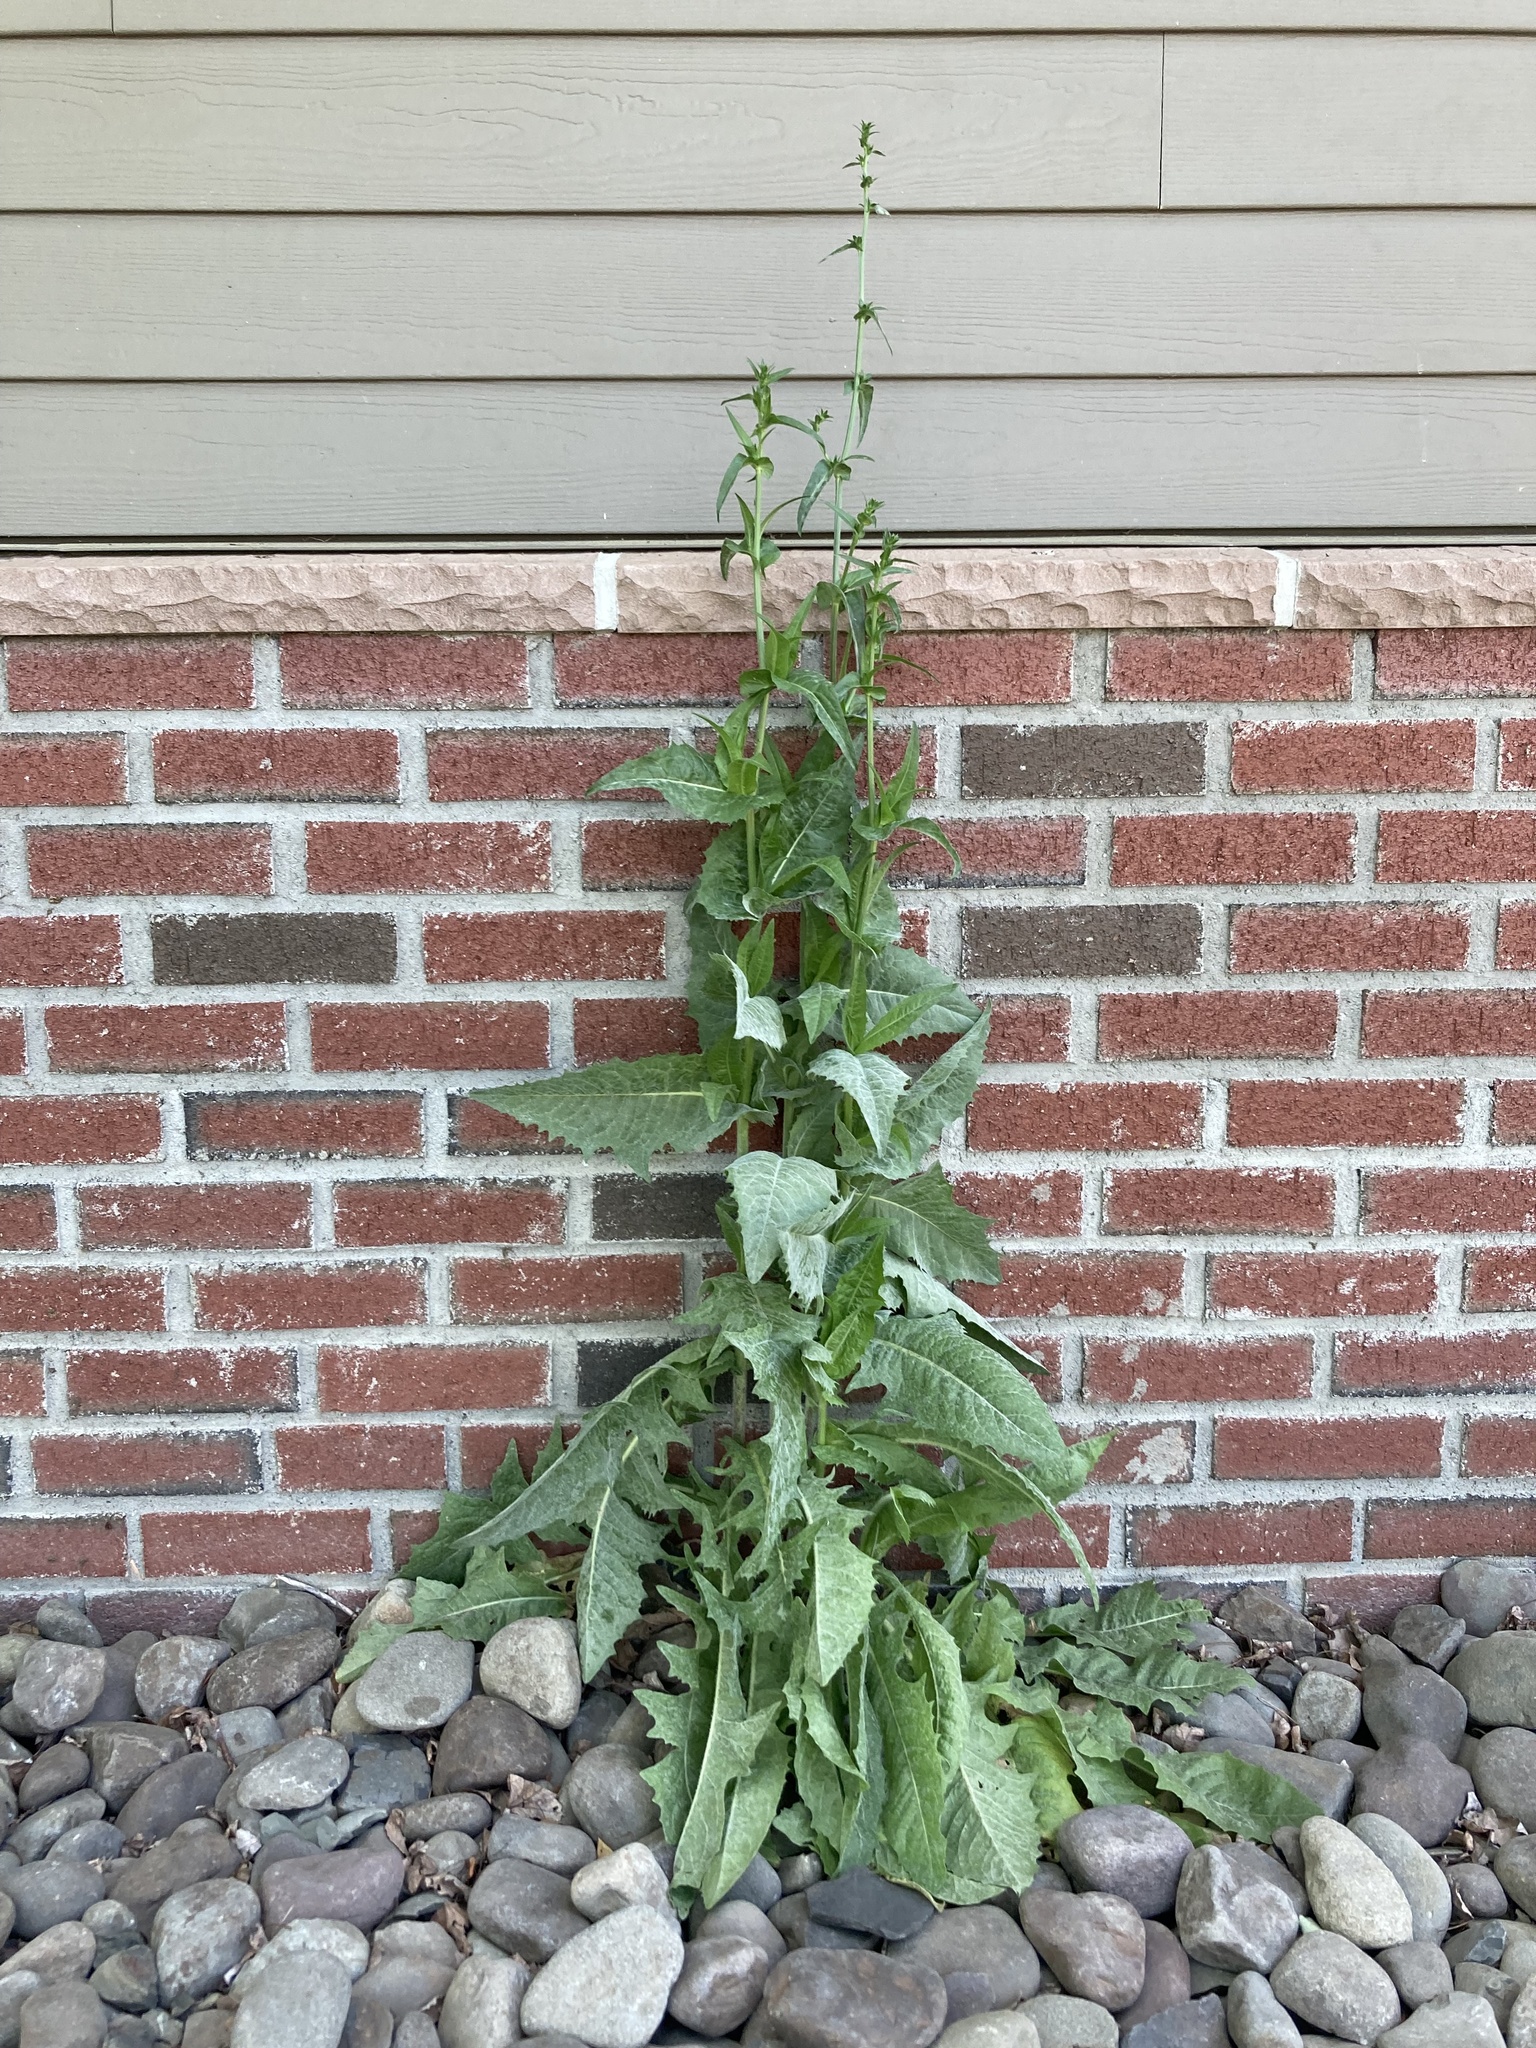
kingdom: Plantae
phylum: Tracheophyta
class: Magnoliopsida
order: Asterales
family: Asteraceae
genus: Cichorium
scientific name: Cichorium intybus
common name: Chicory
